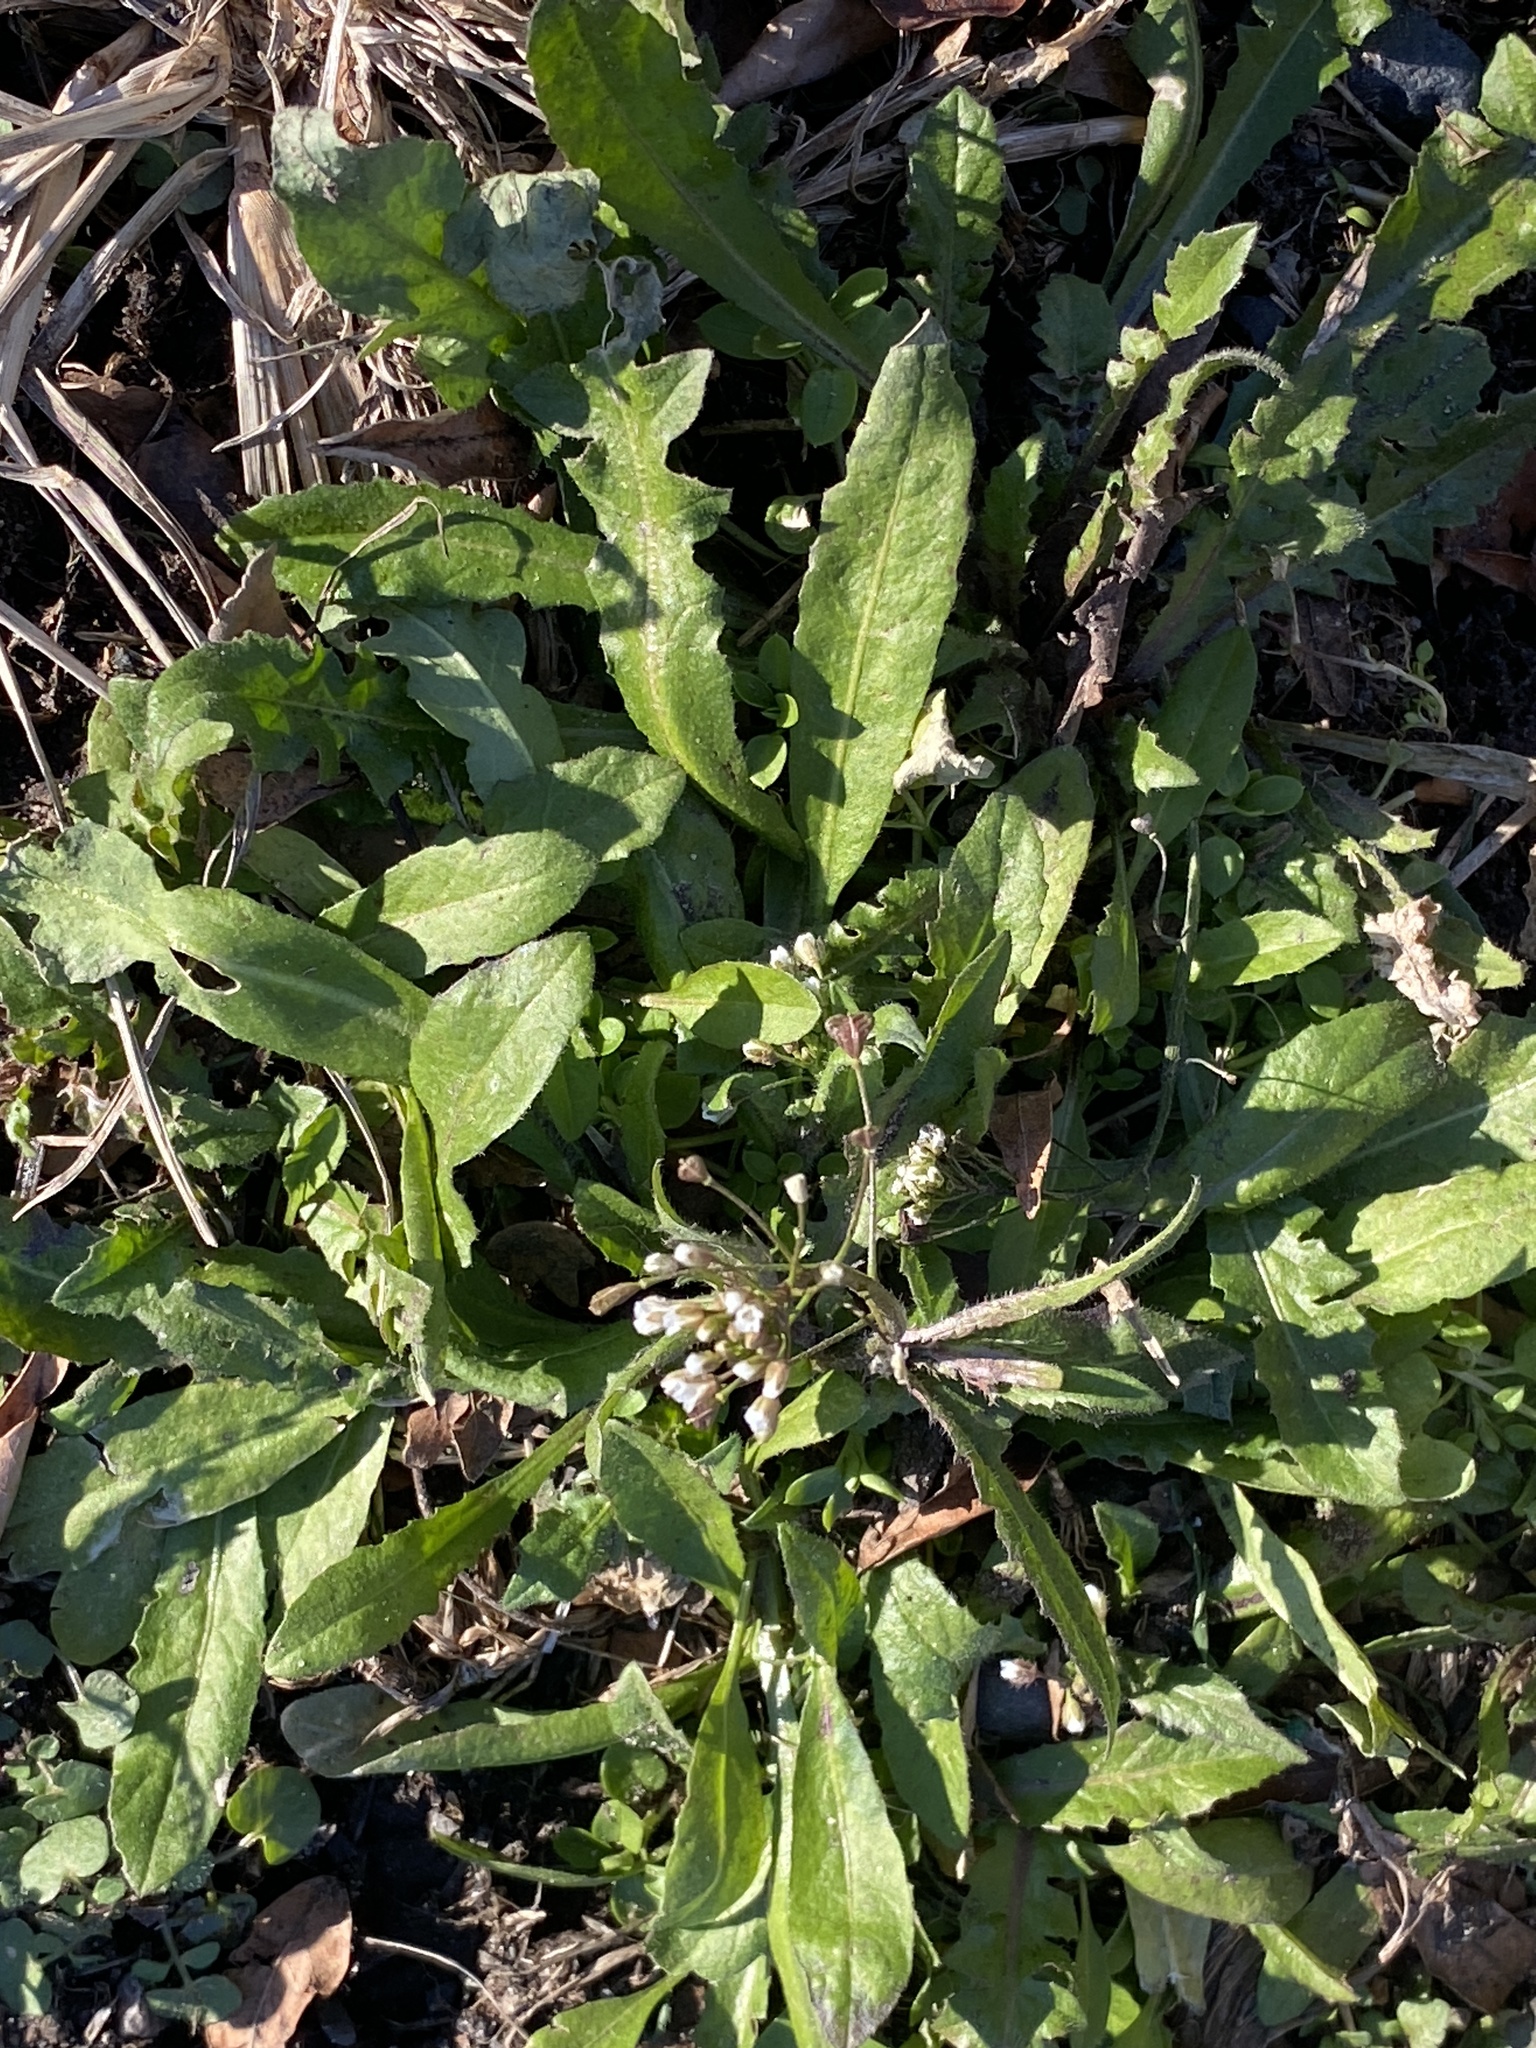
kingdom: Plantae
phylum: Tracheophyta
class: Magnoliopsida
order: Brassicales
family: Brassicaceae
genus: Capsella
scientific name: Capsella bursa-pastoris
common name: Shepherd's purse
